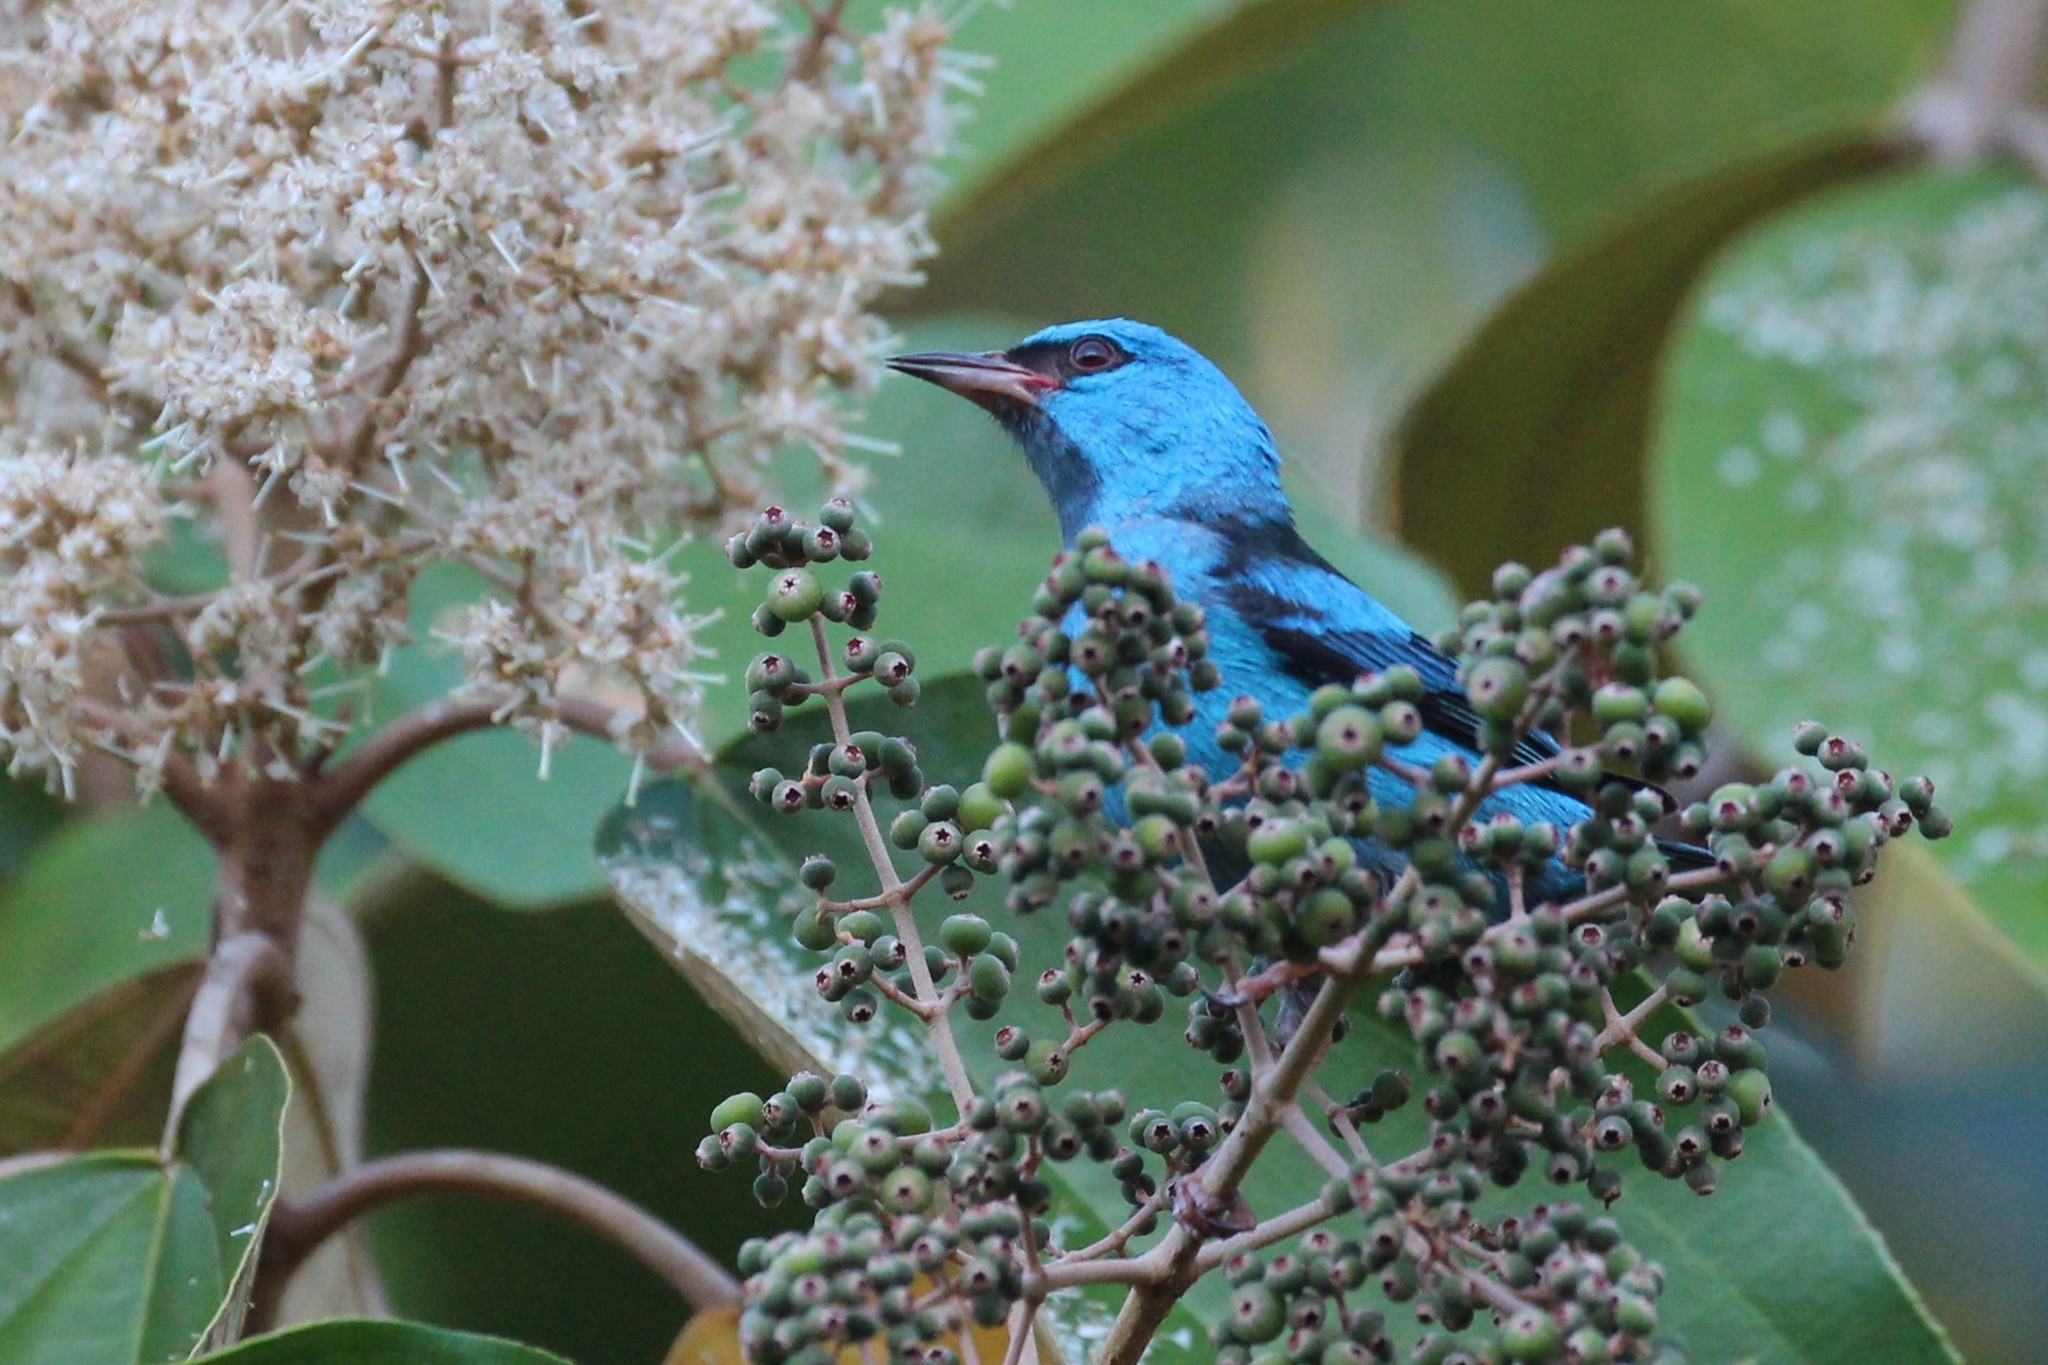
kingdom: Animalia
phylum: Chordata
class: Aves
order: Passeriformes
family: Thraupidae
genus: Dacnis
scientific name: Dacnis cayana
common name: Blue dacnis
